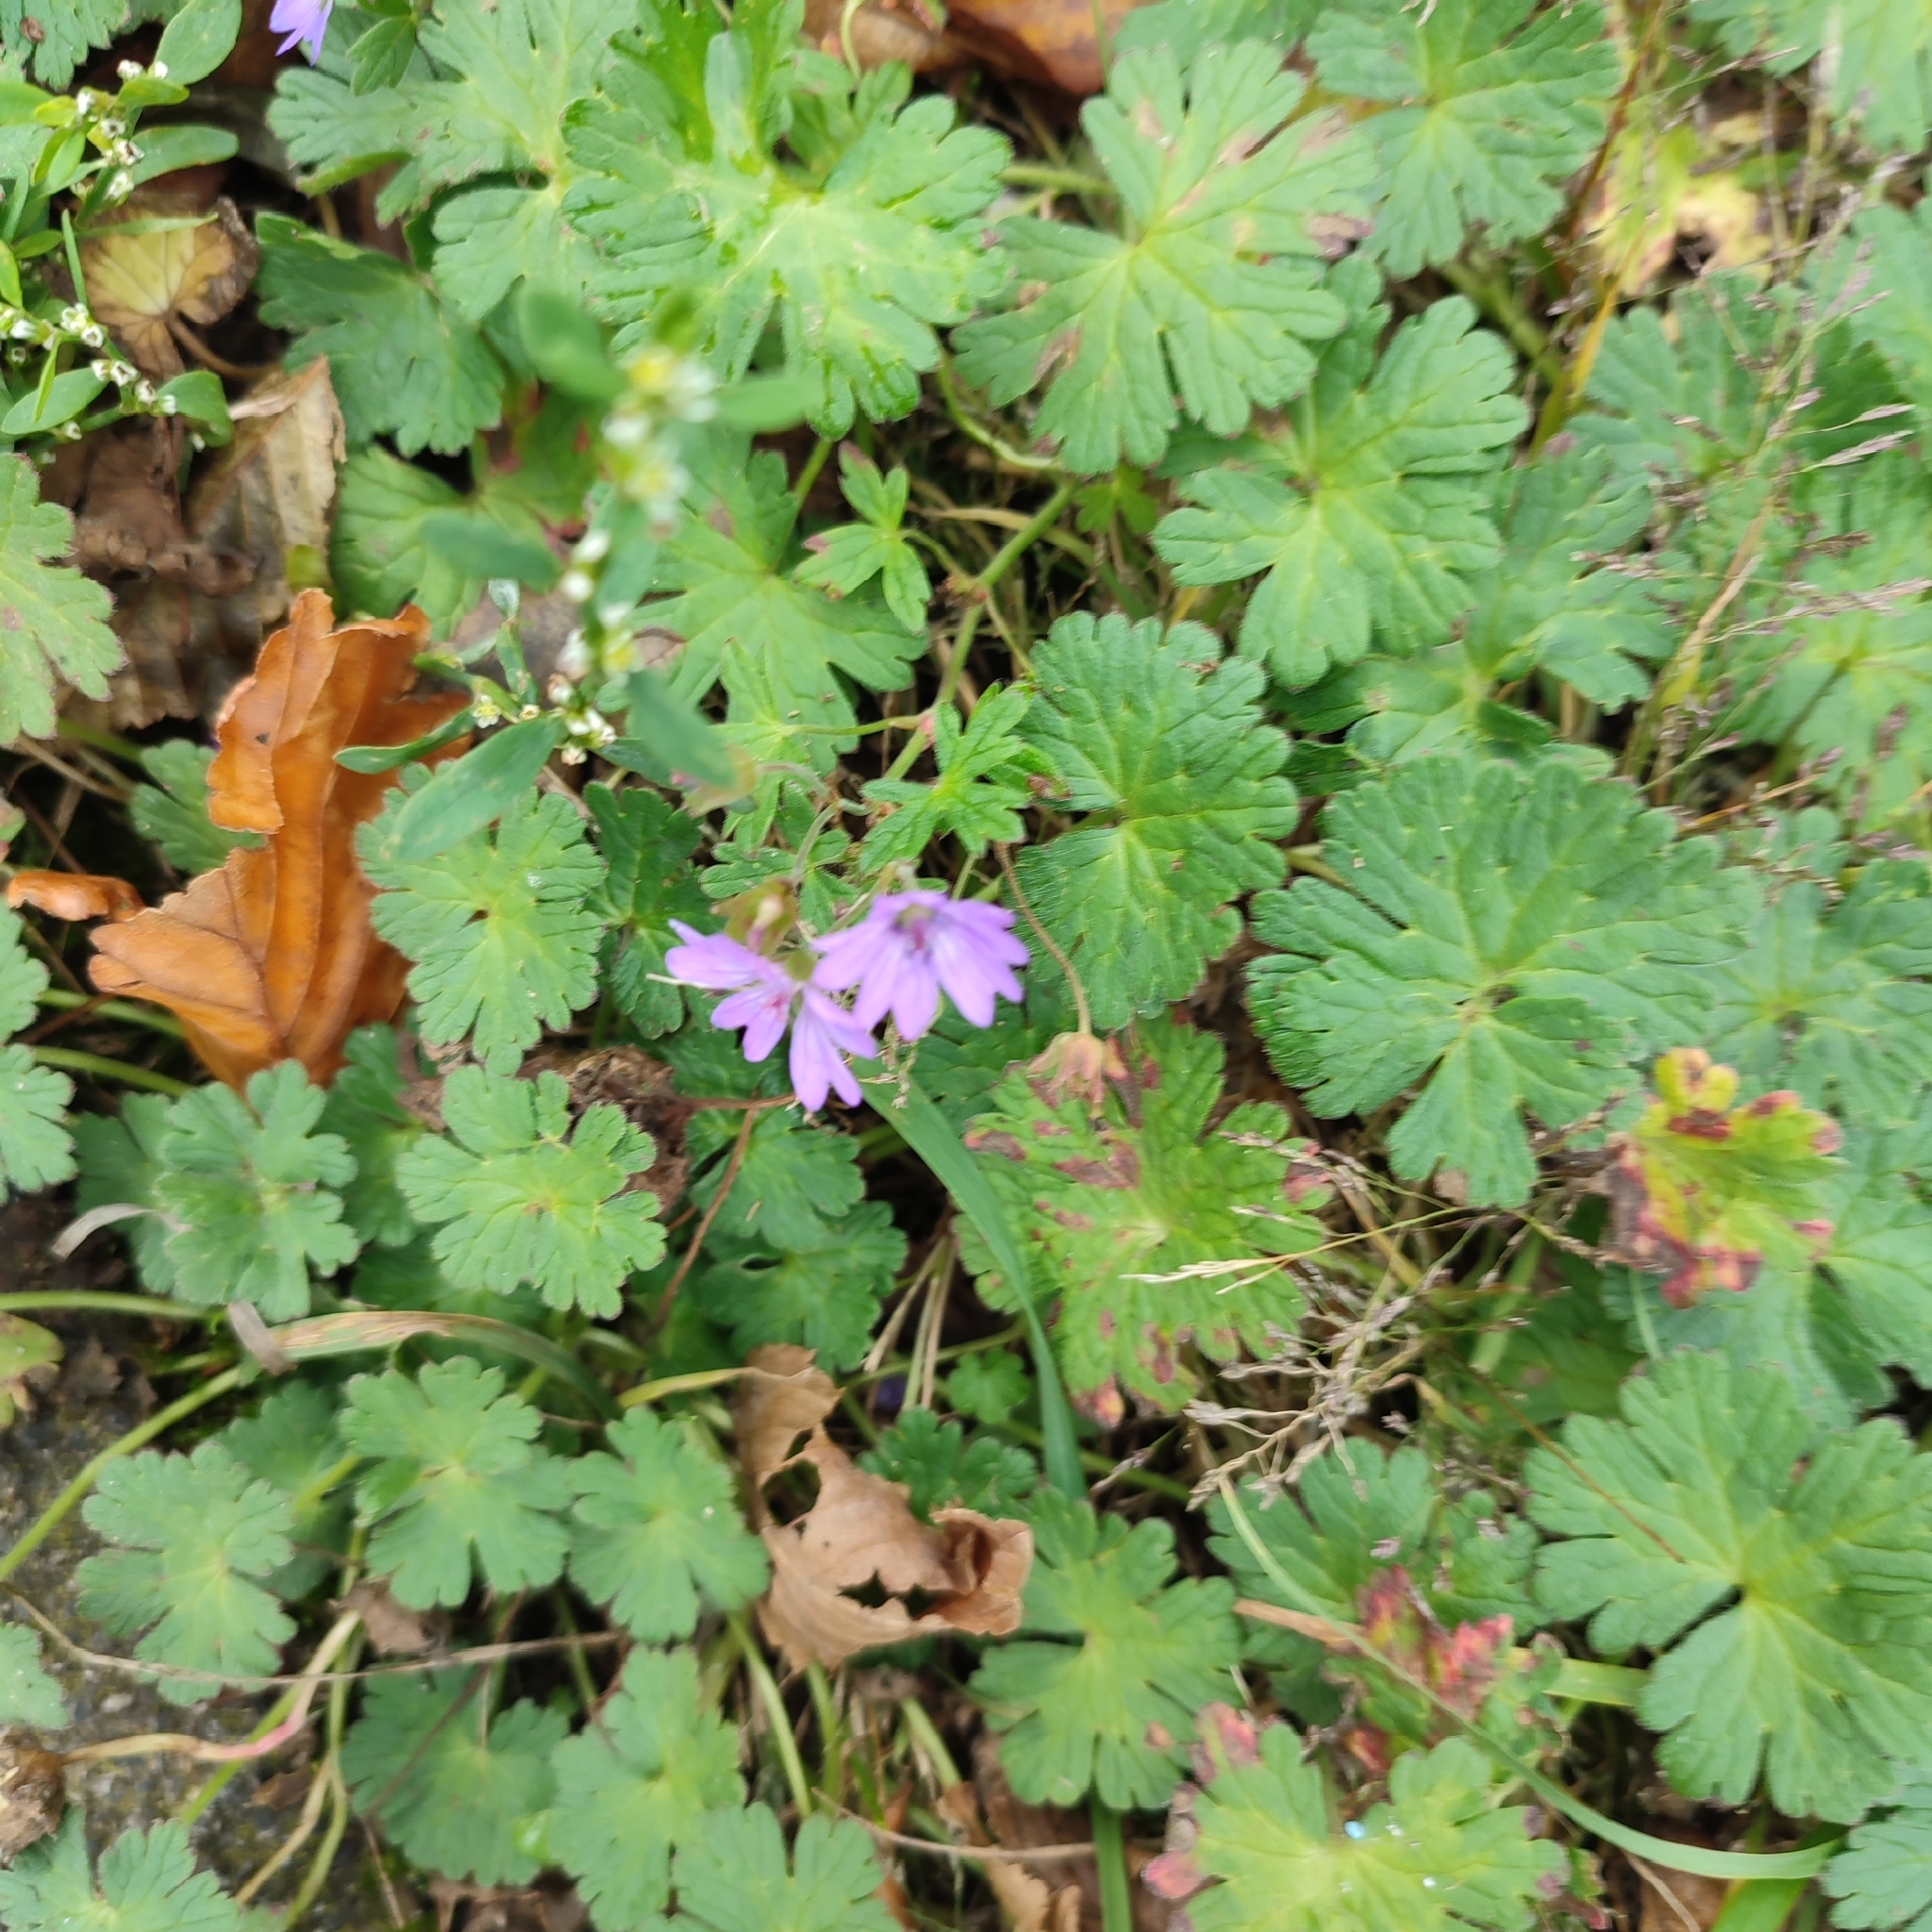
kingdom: Plantae
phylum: Tracheophyta
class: Magnoliopsida
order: Geraniales
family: Geraniaceae
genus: Geranium
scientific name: Geranium pyrenaicum
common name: Hedgerow crane's-bill
